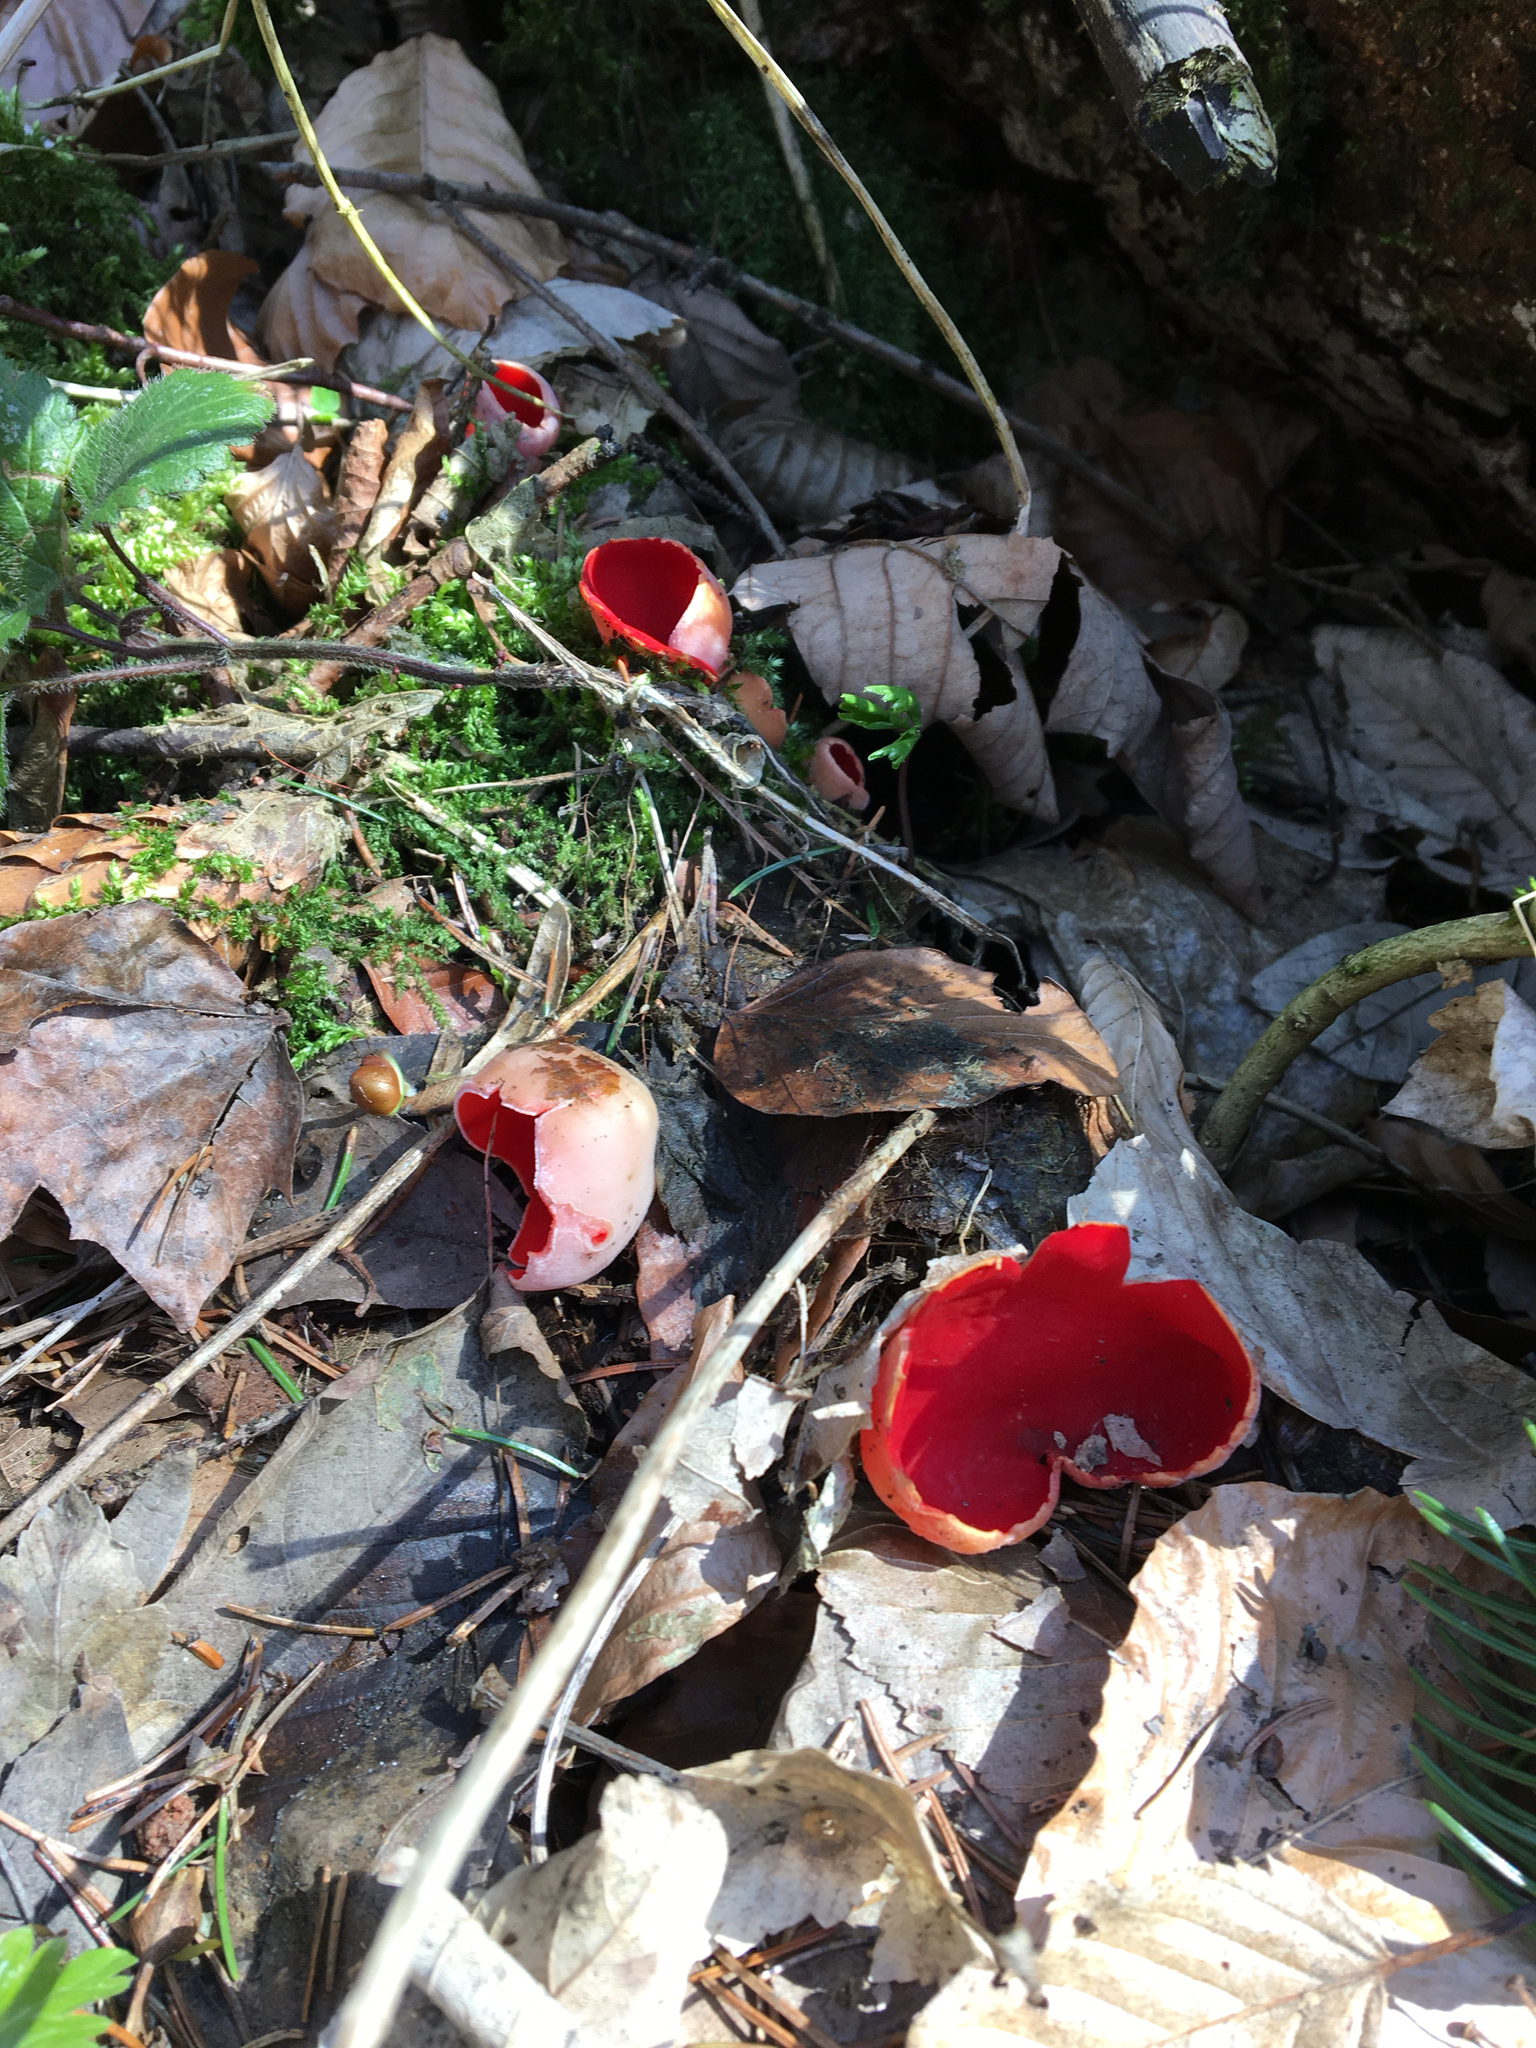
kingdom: Fungi
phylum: Ascomycota
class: Pezizomycetes
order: Pezizales
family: Sarcoscyphaceae
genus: Sarcoscypha
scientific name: Sarcoscypha
